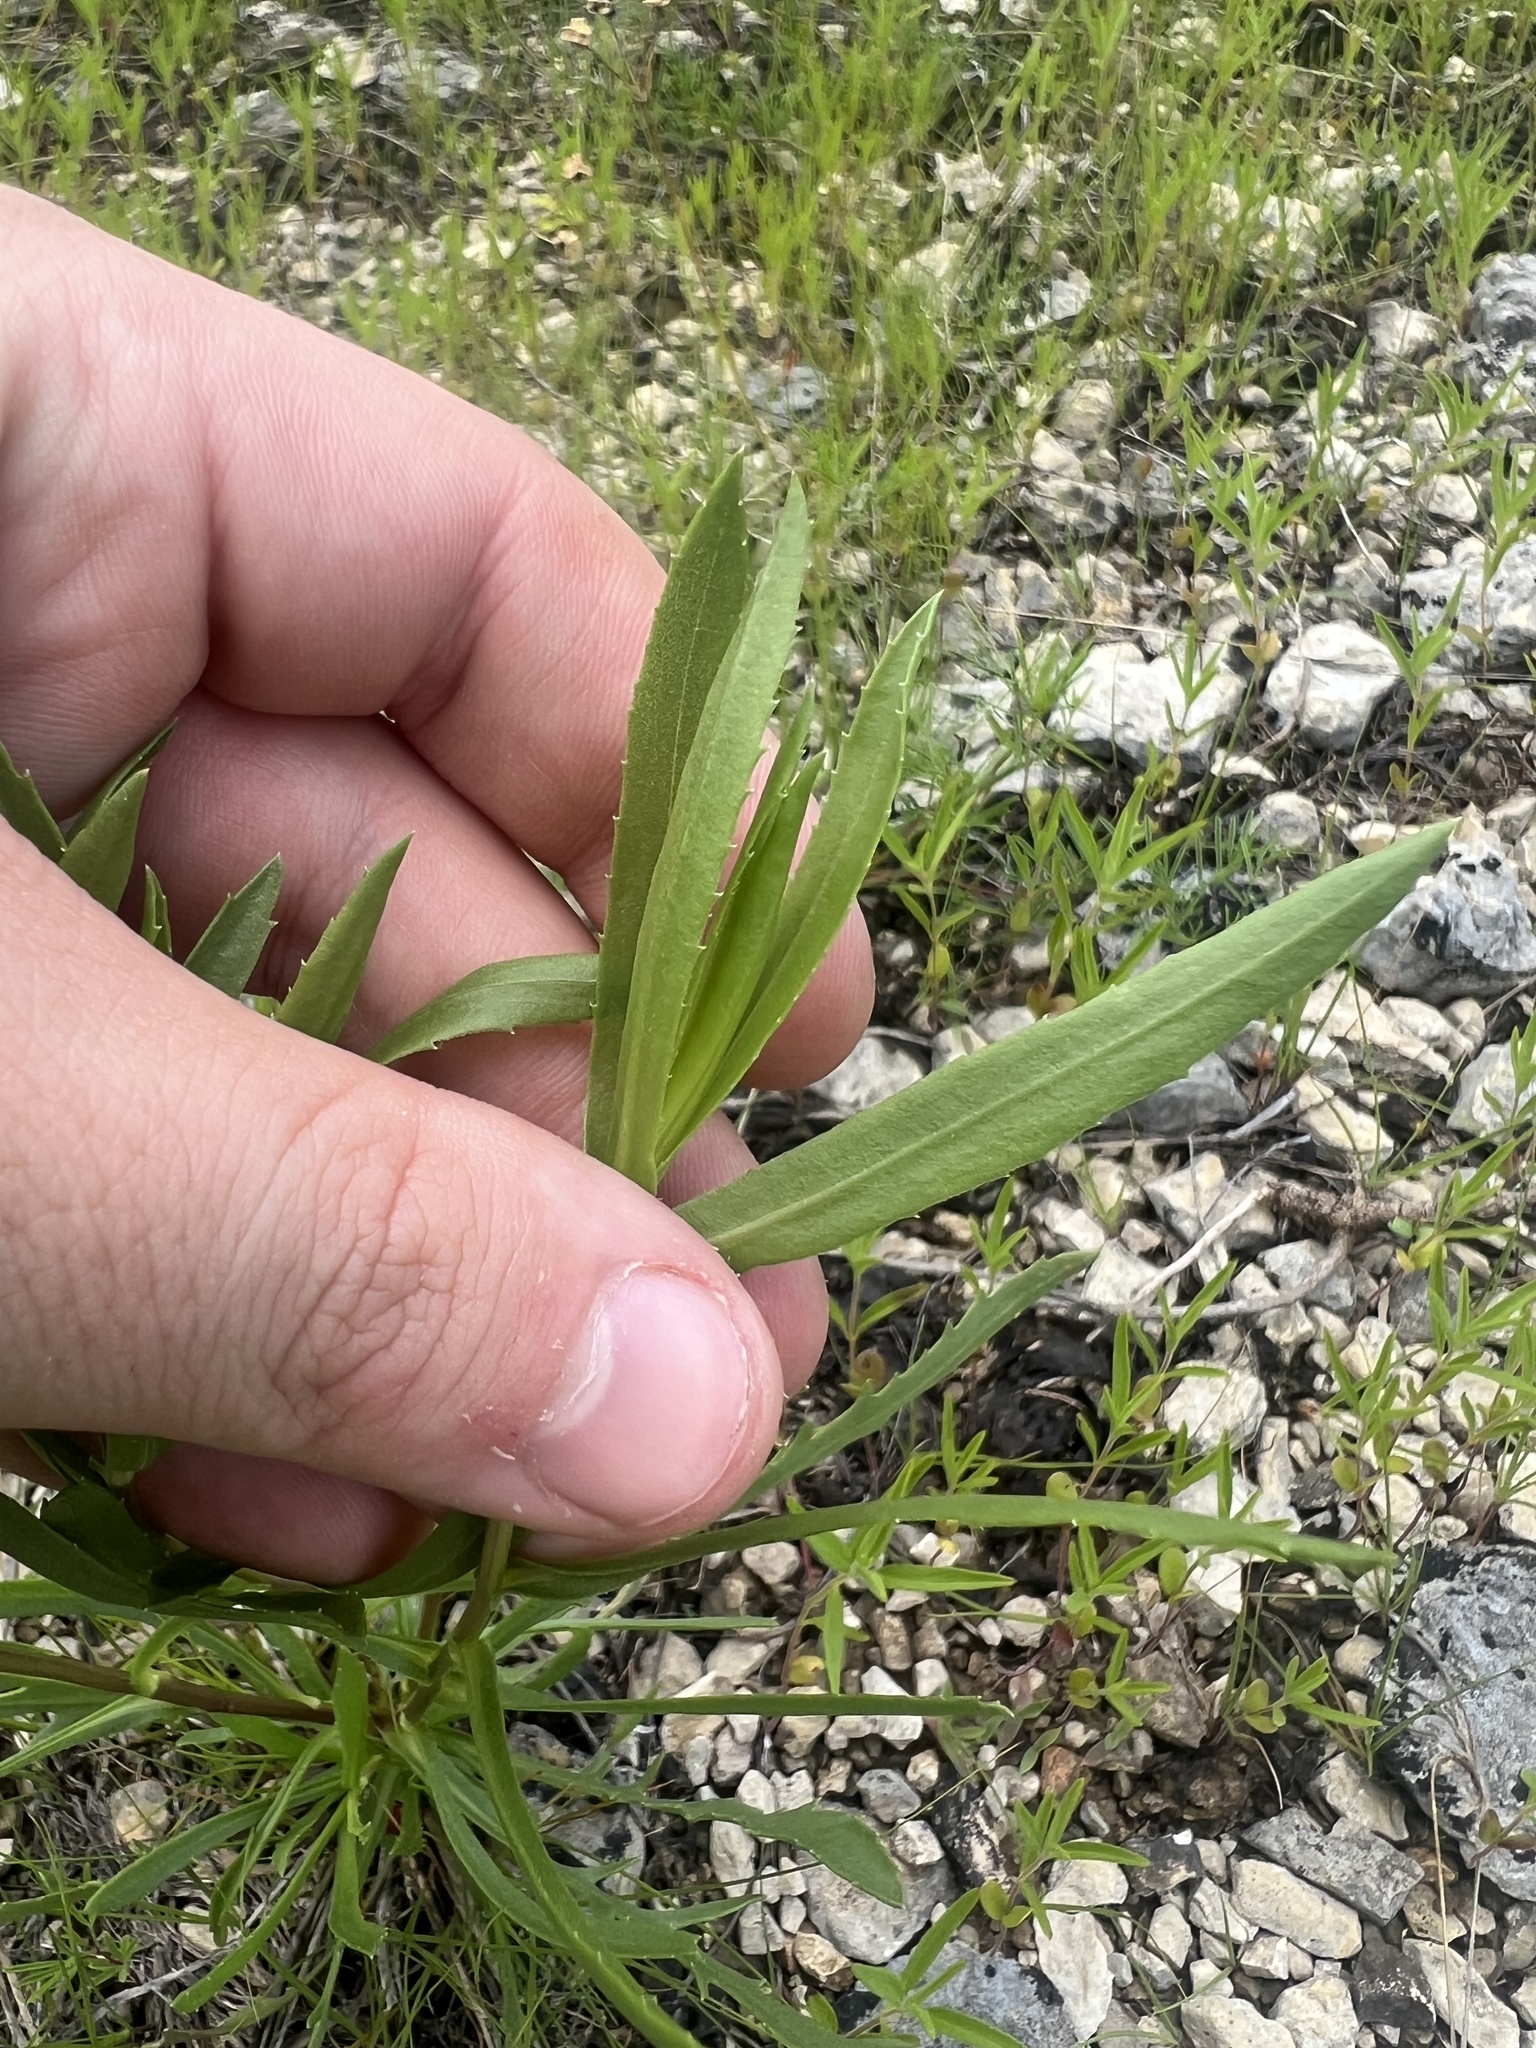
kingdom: Plantae
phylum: Tracheophyta
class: Magnoliopsida
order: Asterales
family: Asteraceae
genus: Grindelia
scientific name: Grindelia lanceolata
